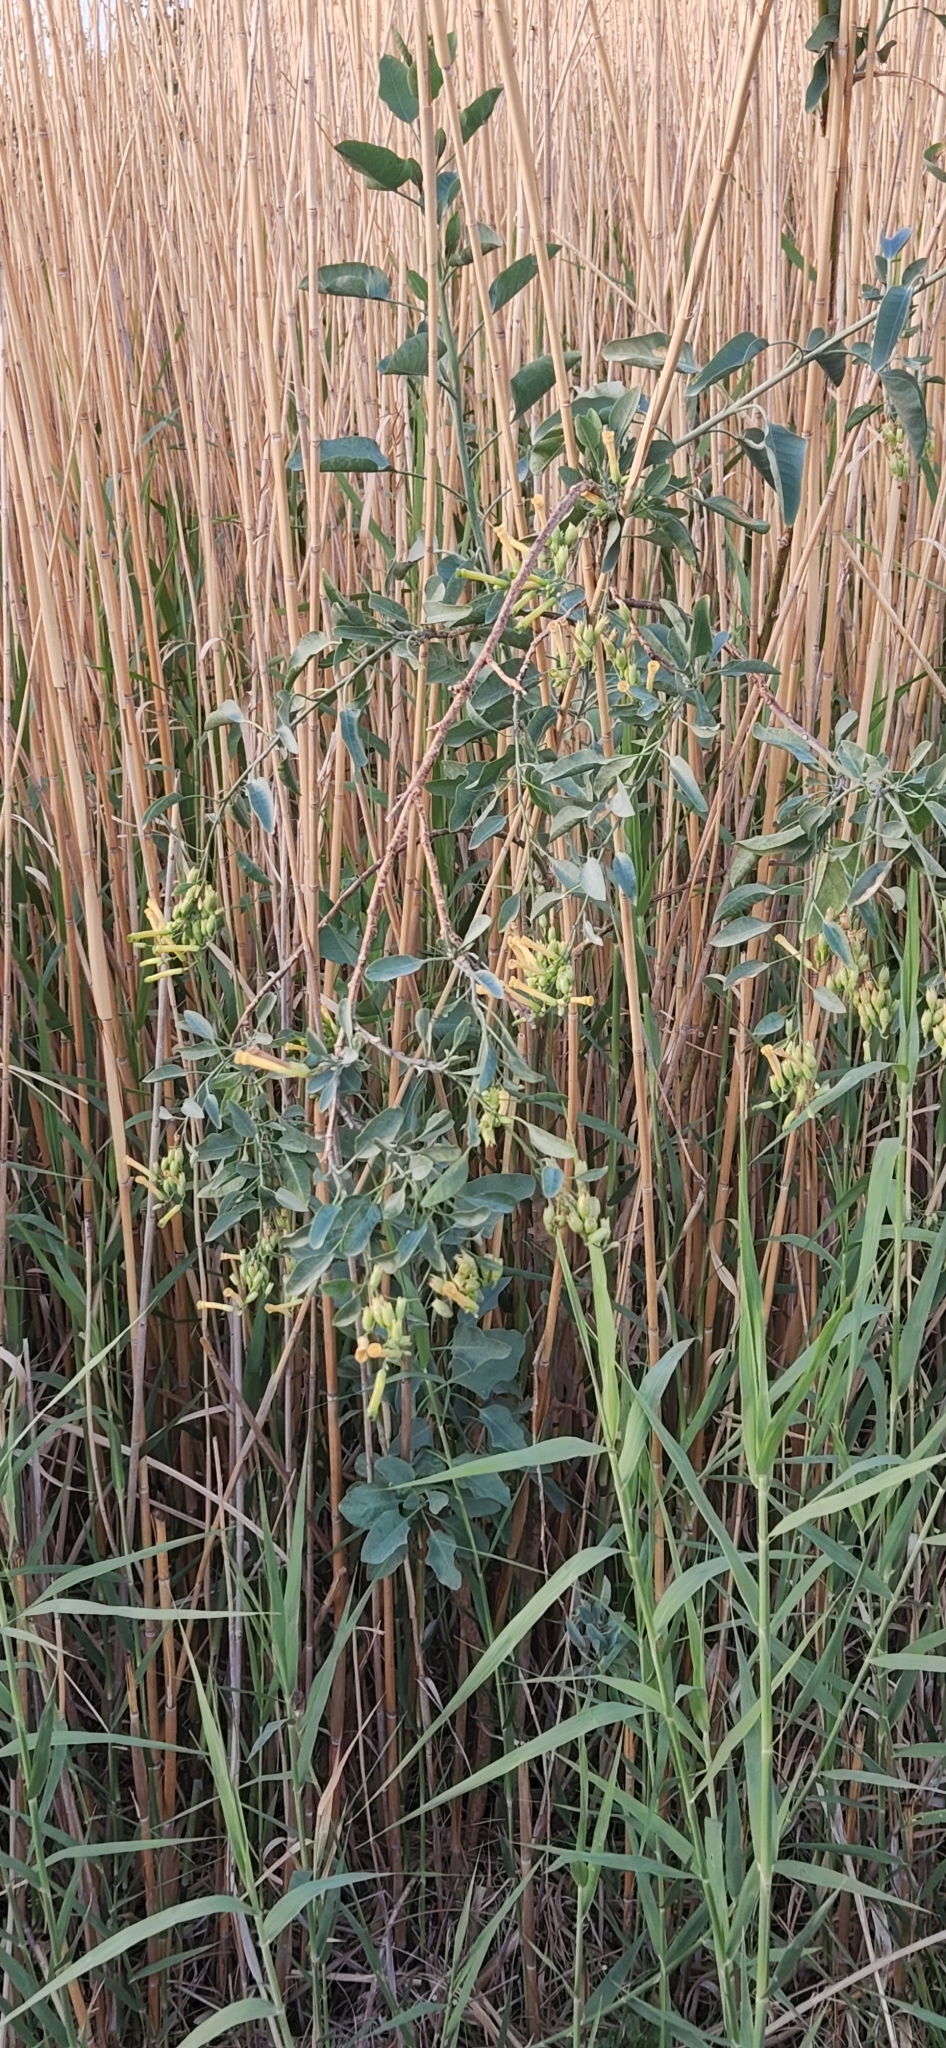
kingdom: Plantae
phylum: Tracheophyta
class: Magnoliopsida
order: Solanales
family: Solanaceae
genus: Nicotiana
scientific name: Nicotiana glauca
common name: Tree tobacco
